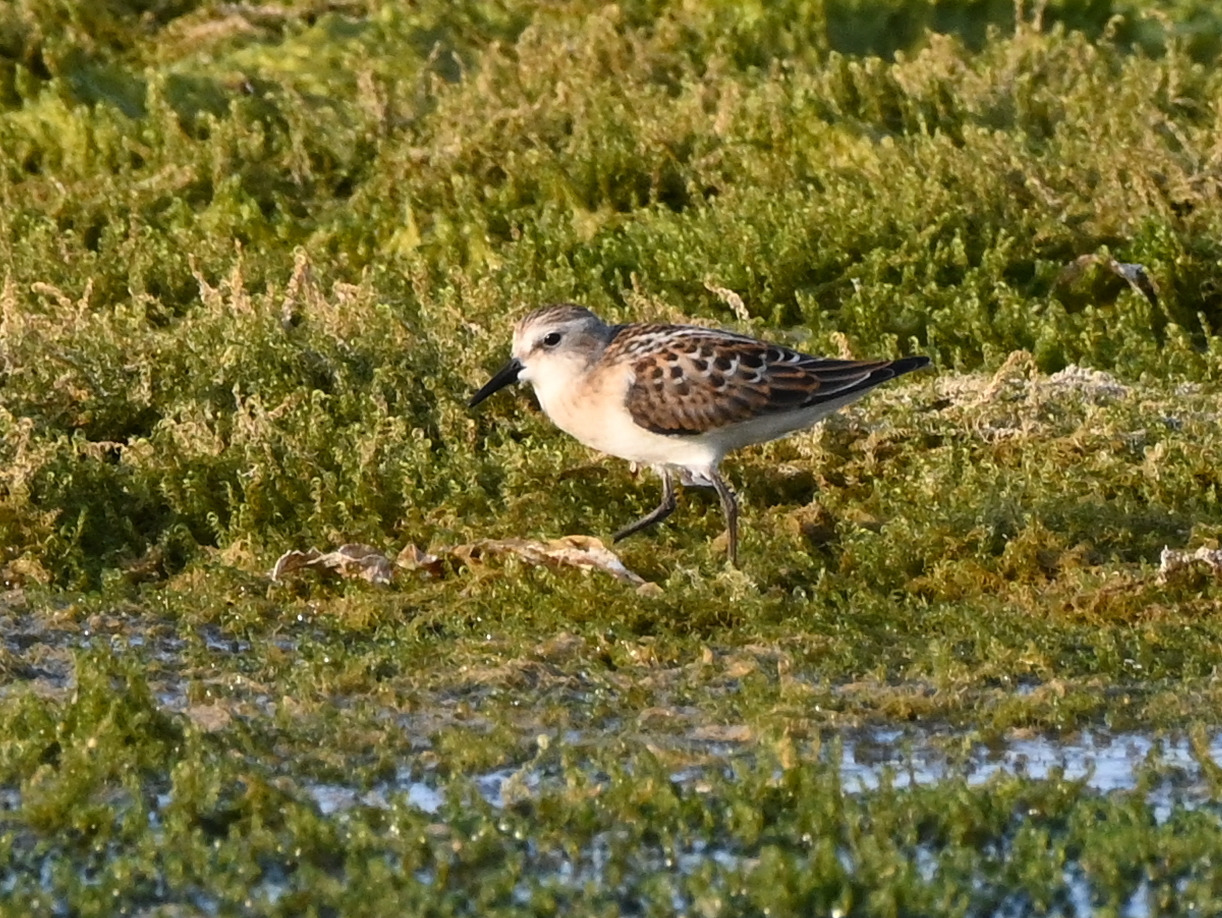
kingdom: Animalia
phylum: Chordata
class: Aves
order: Charadriiformes
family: Scolopacidae
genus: Calidris
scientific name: Calidris minuta
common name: Little stint
